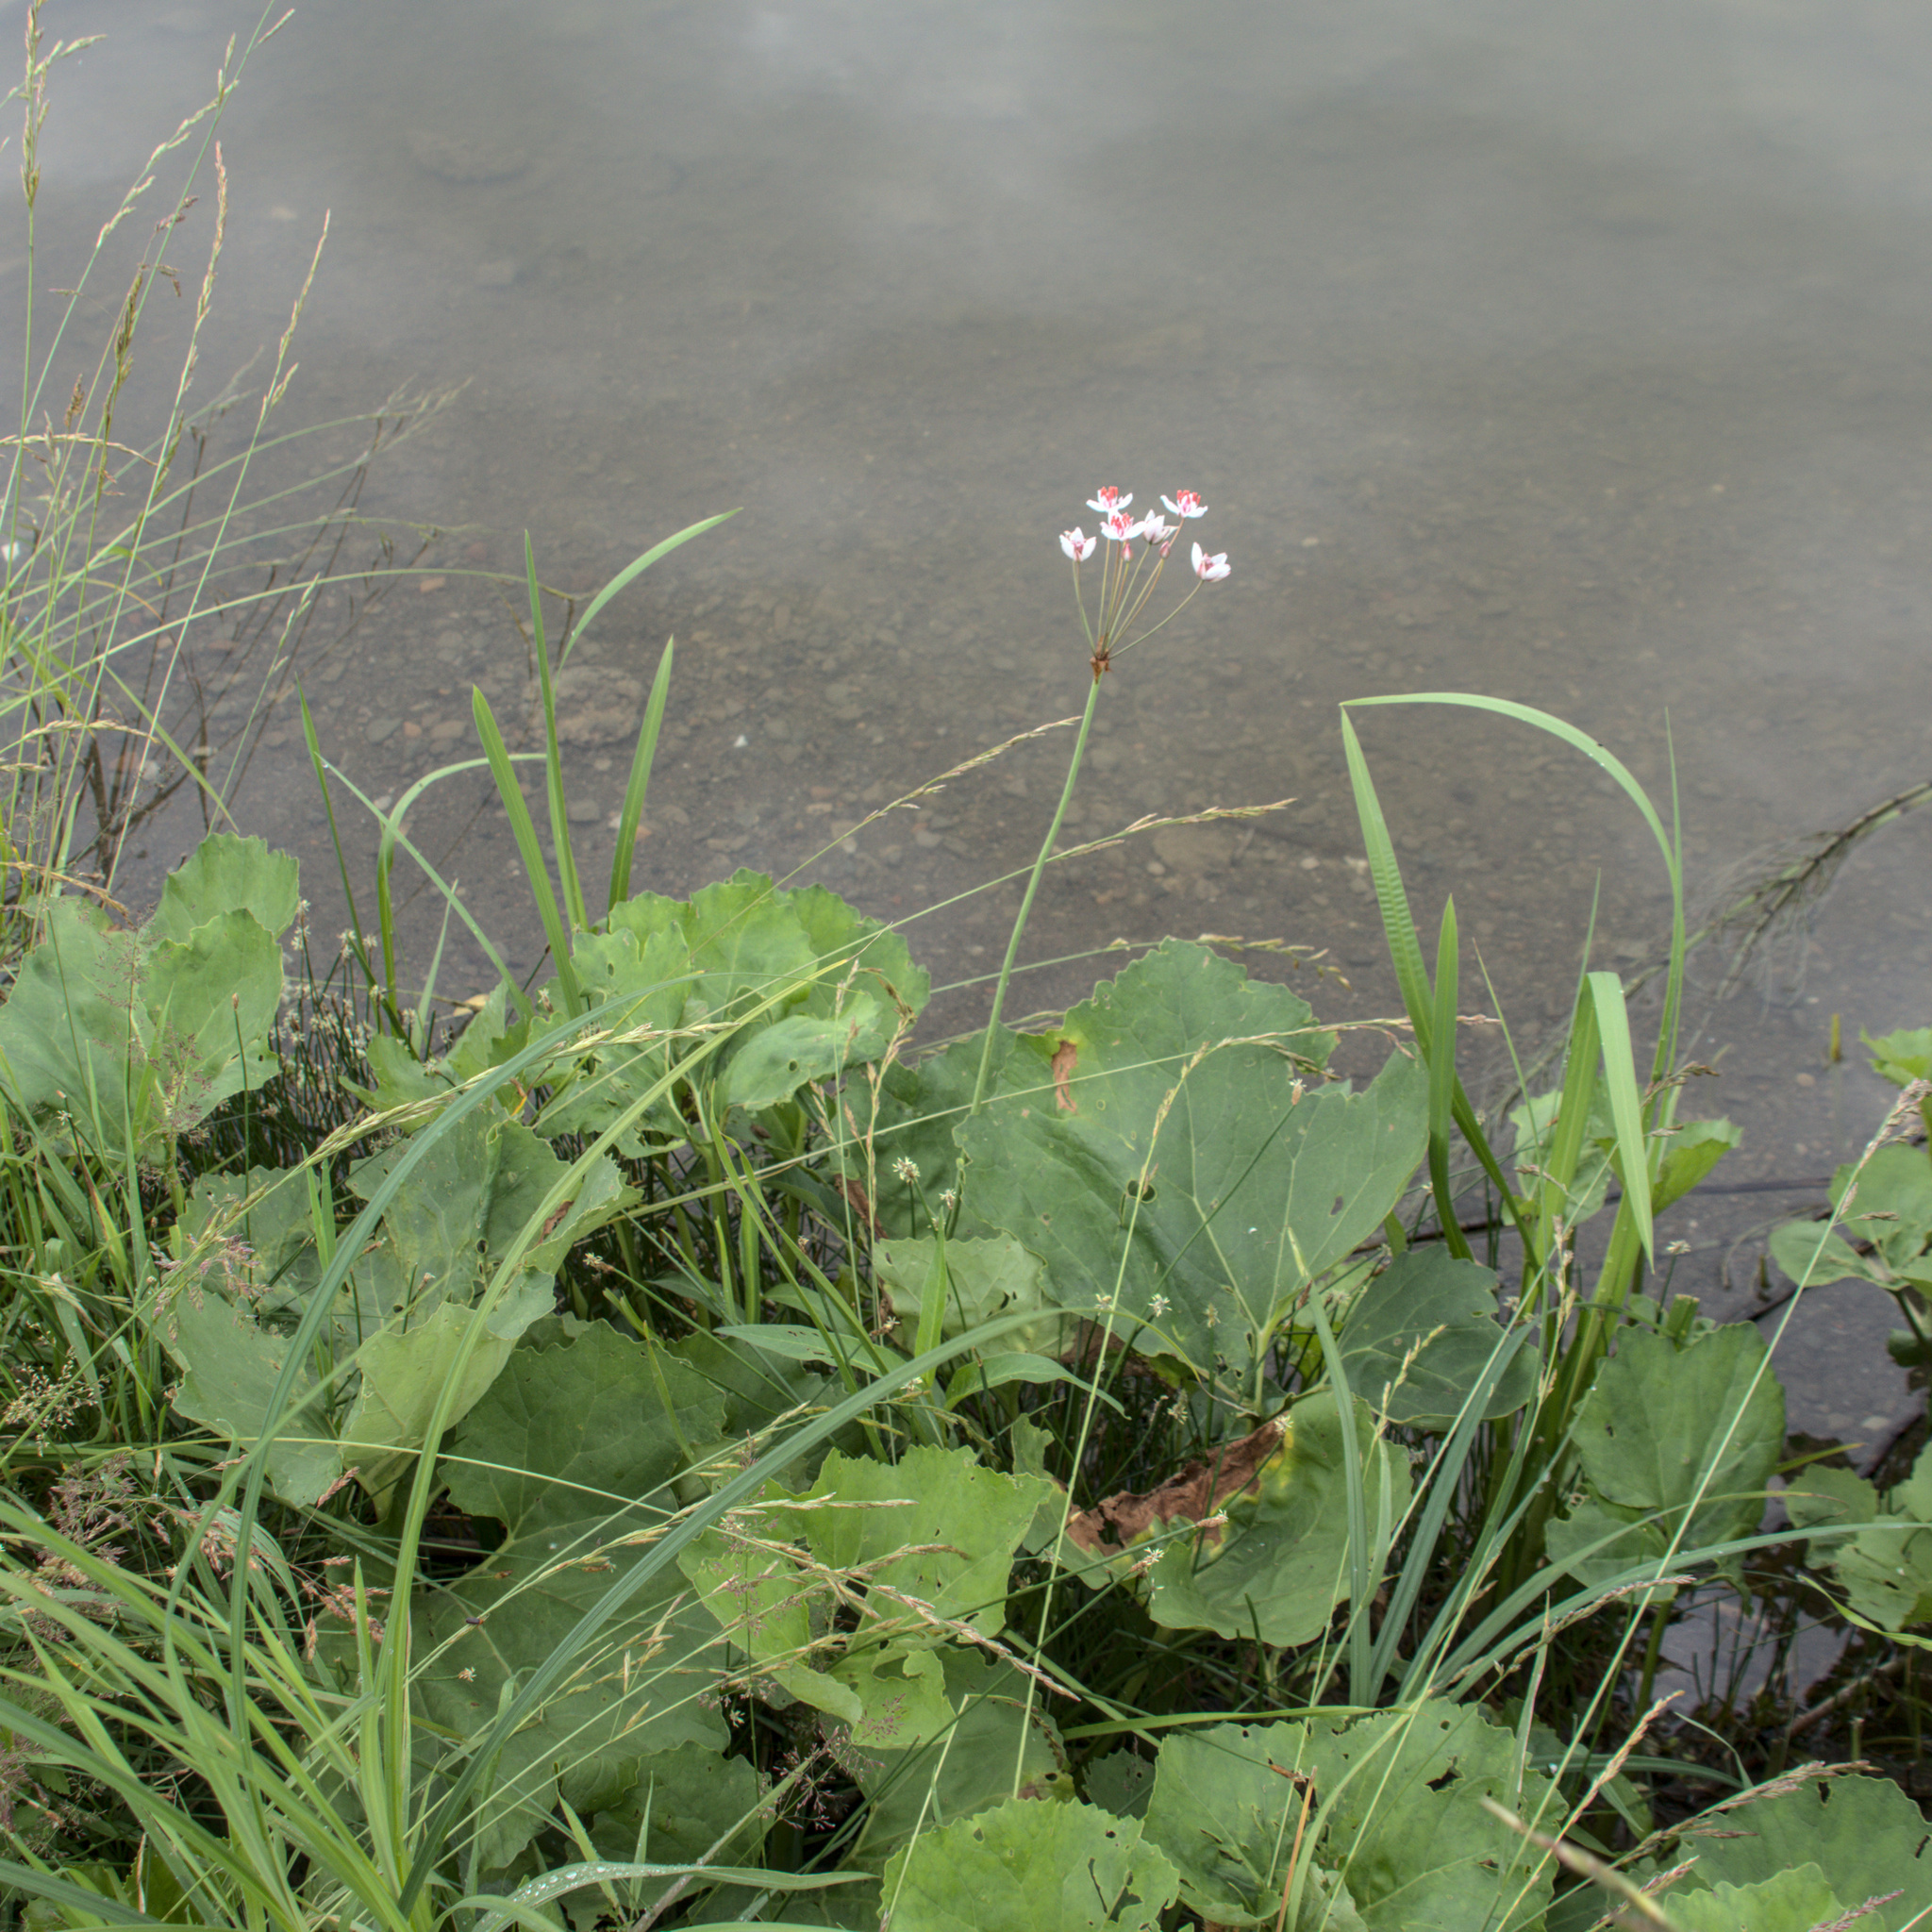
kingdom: Plantae
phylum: Tracheophyta
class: Liliopsida
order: Alismatales
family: Butomaceae
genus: Butomus
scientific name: Butomus umbellatus
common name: Flowering-rush
